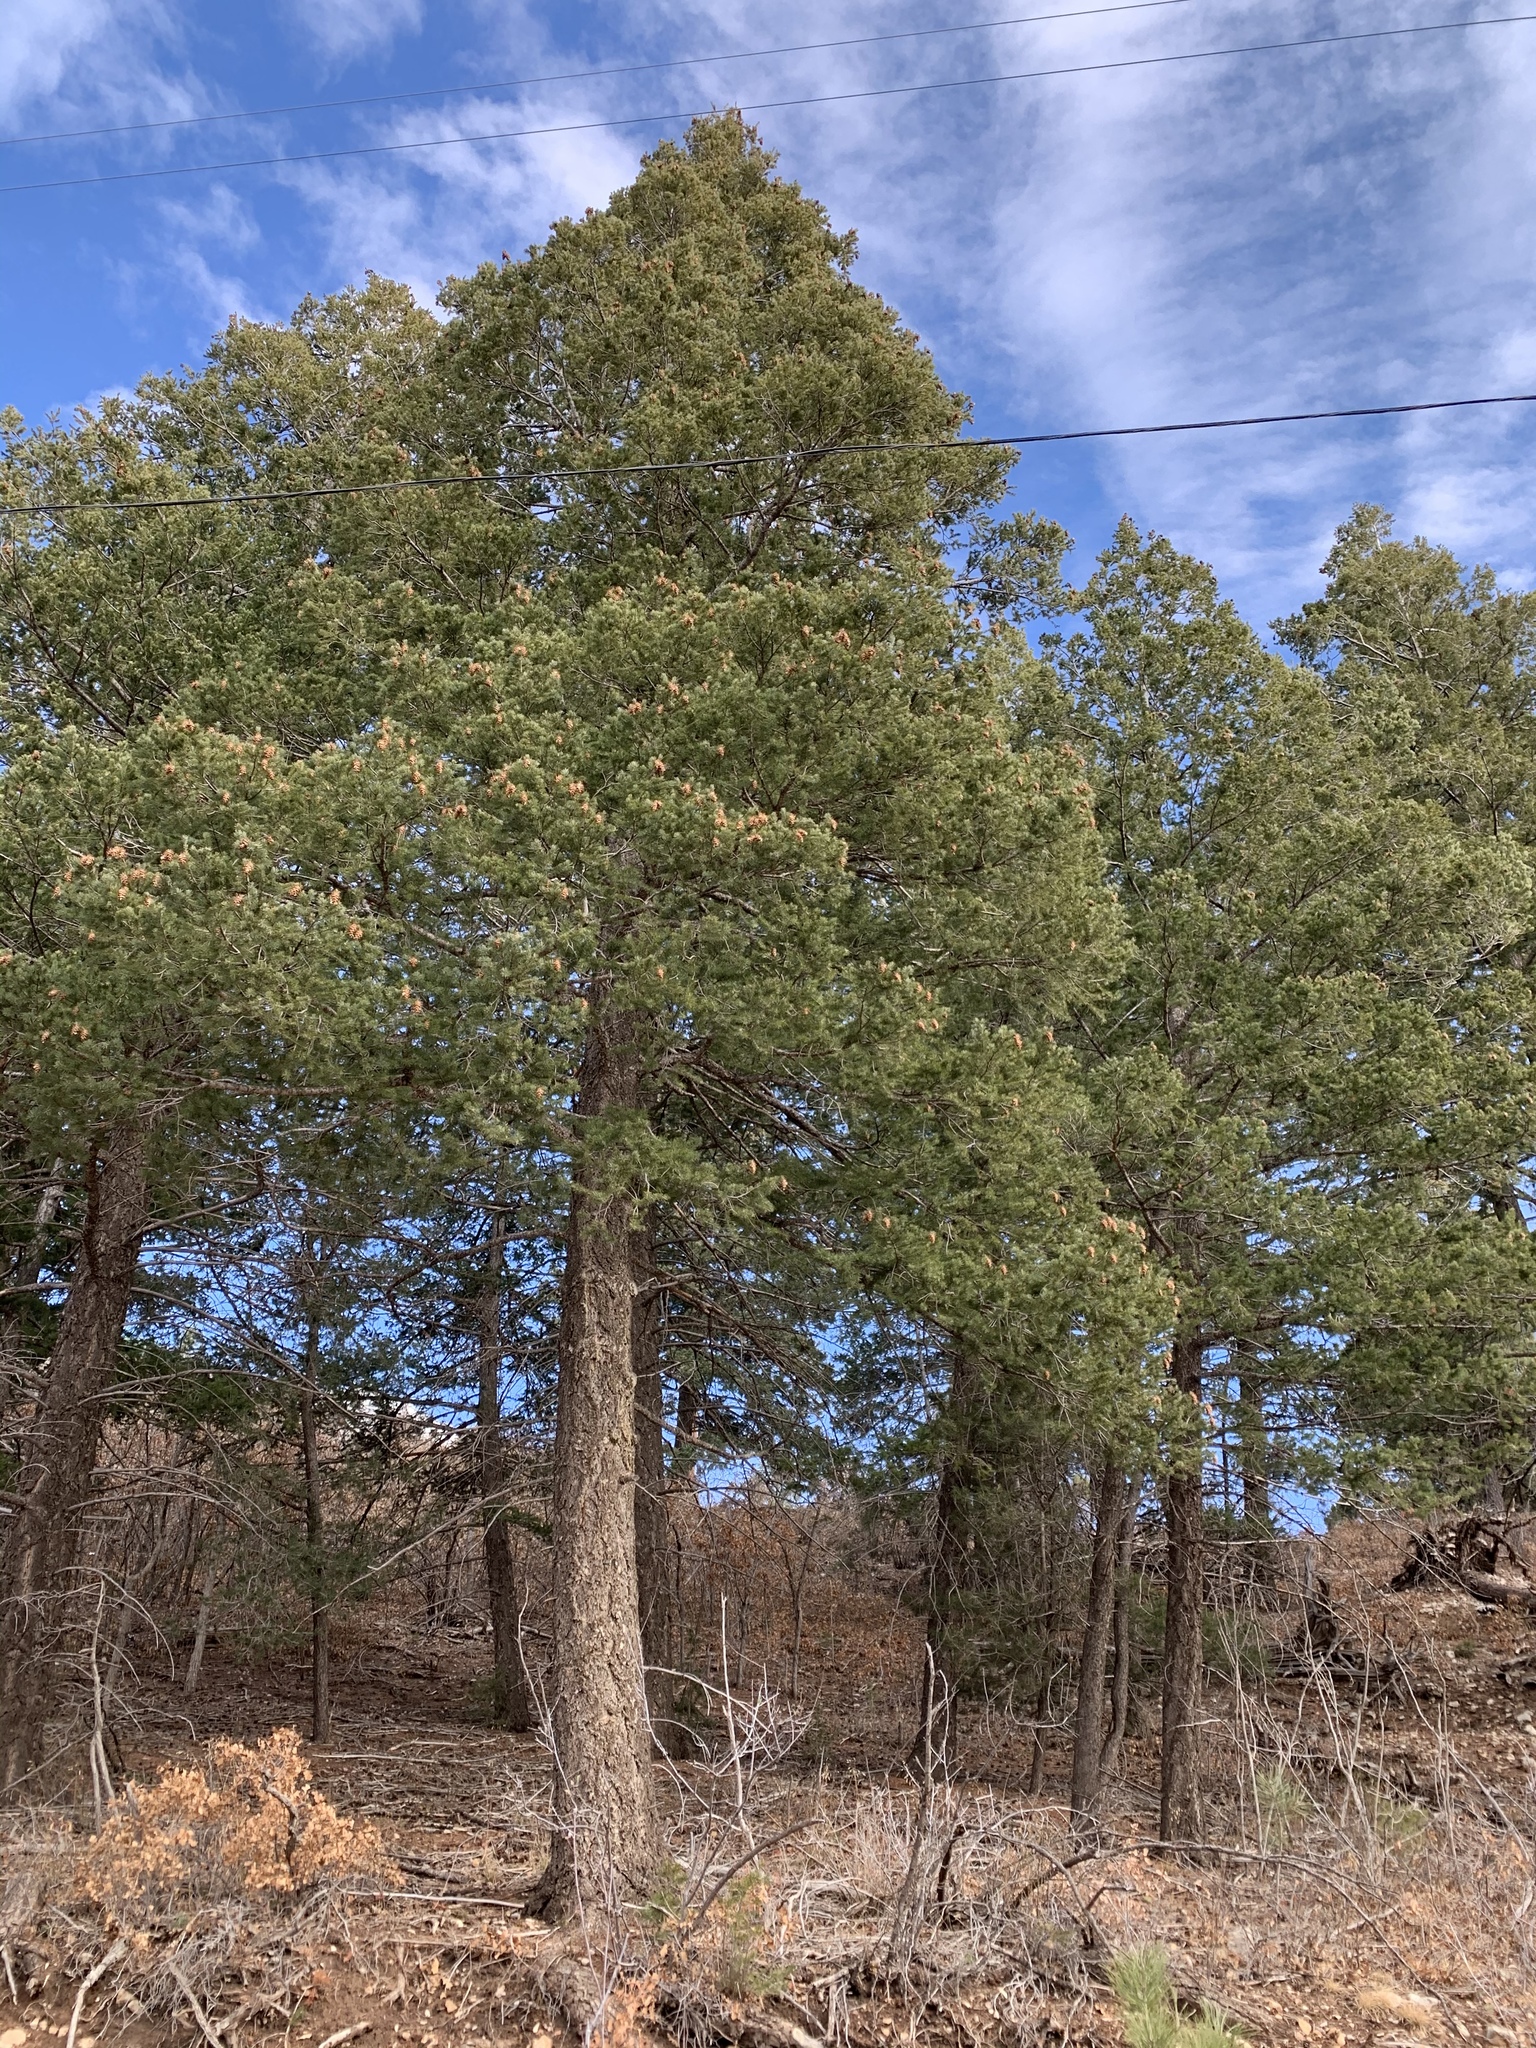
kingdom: Plantae
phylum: Tracheophyta
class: Pinopsida
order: Pinales
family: Pinaceae
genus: Pseudotsuga
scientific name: Pseudotsuga menziesii
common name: Douglas fir
